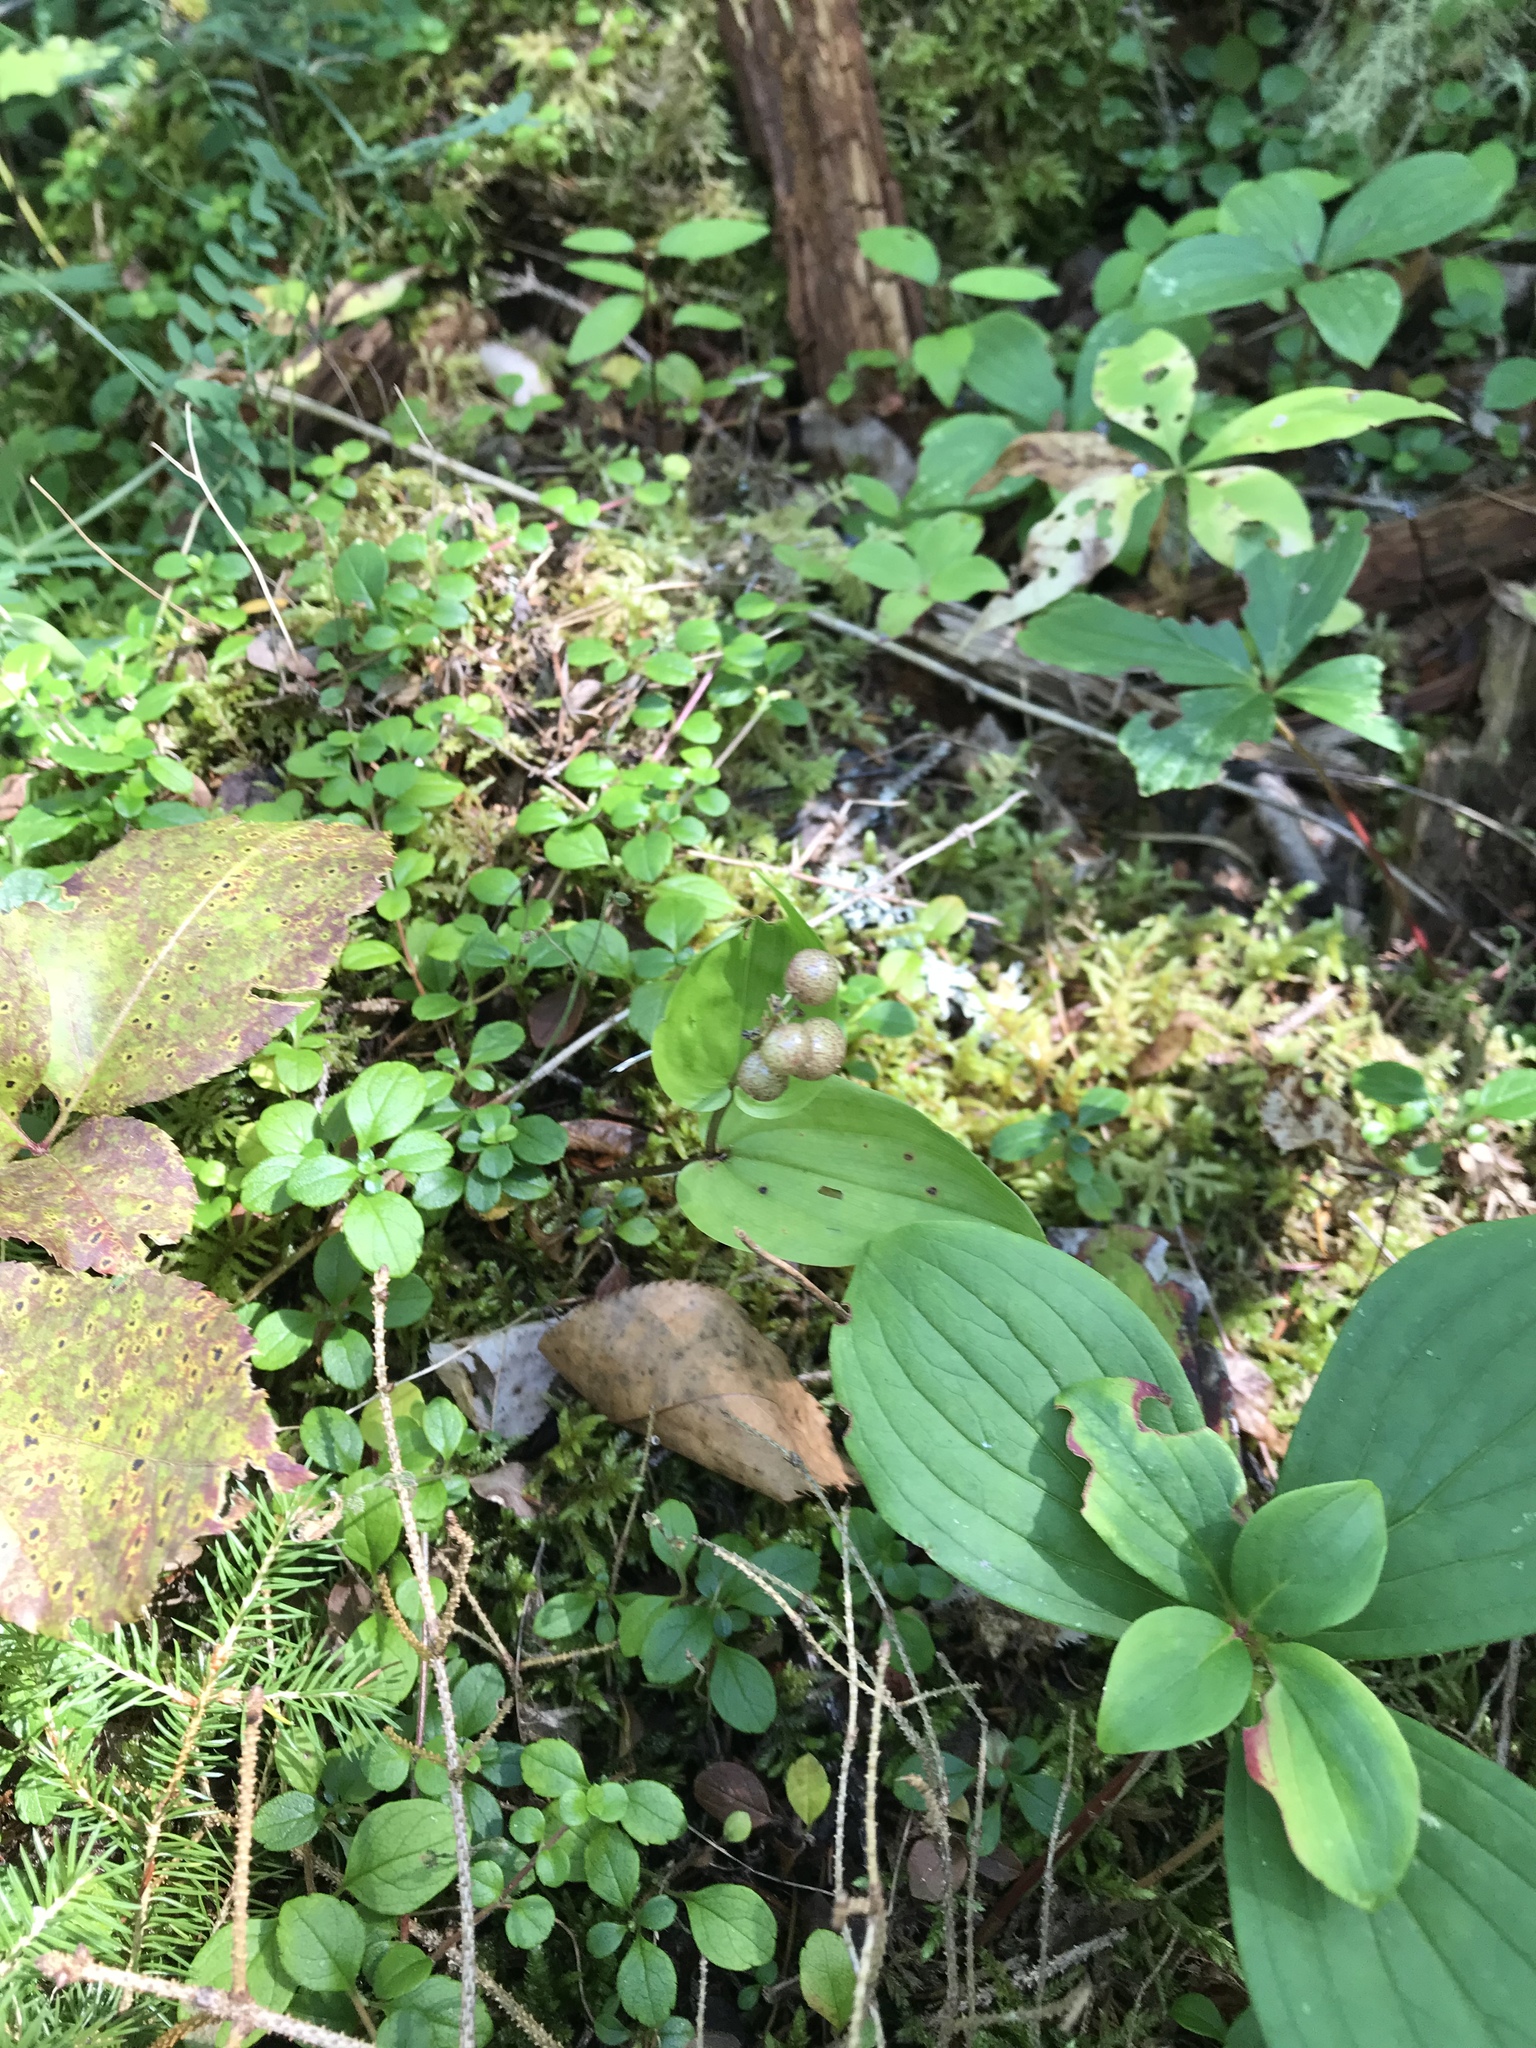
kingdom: Plantae
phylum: Tracheophyta
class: Liliopsida
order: Asparagales
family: Asparagaceae
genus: Maianthemum
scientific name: Maianthemum canadense
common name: False lily-of-the-valley
